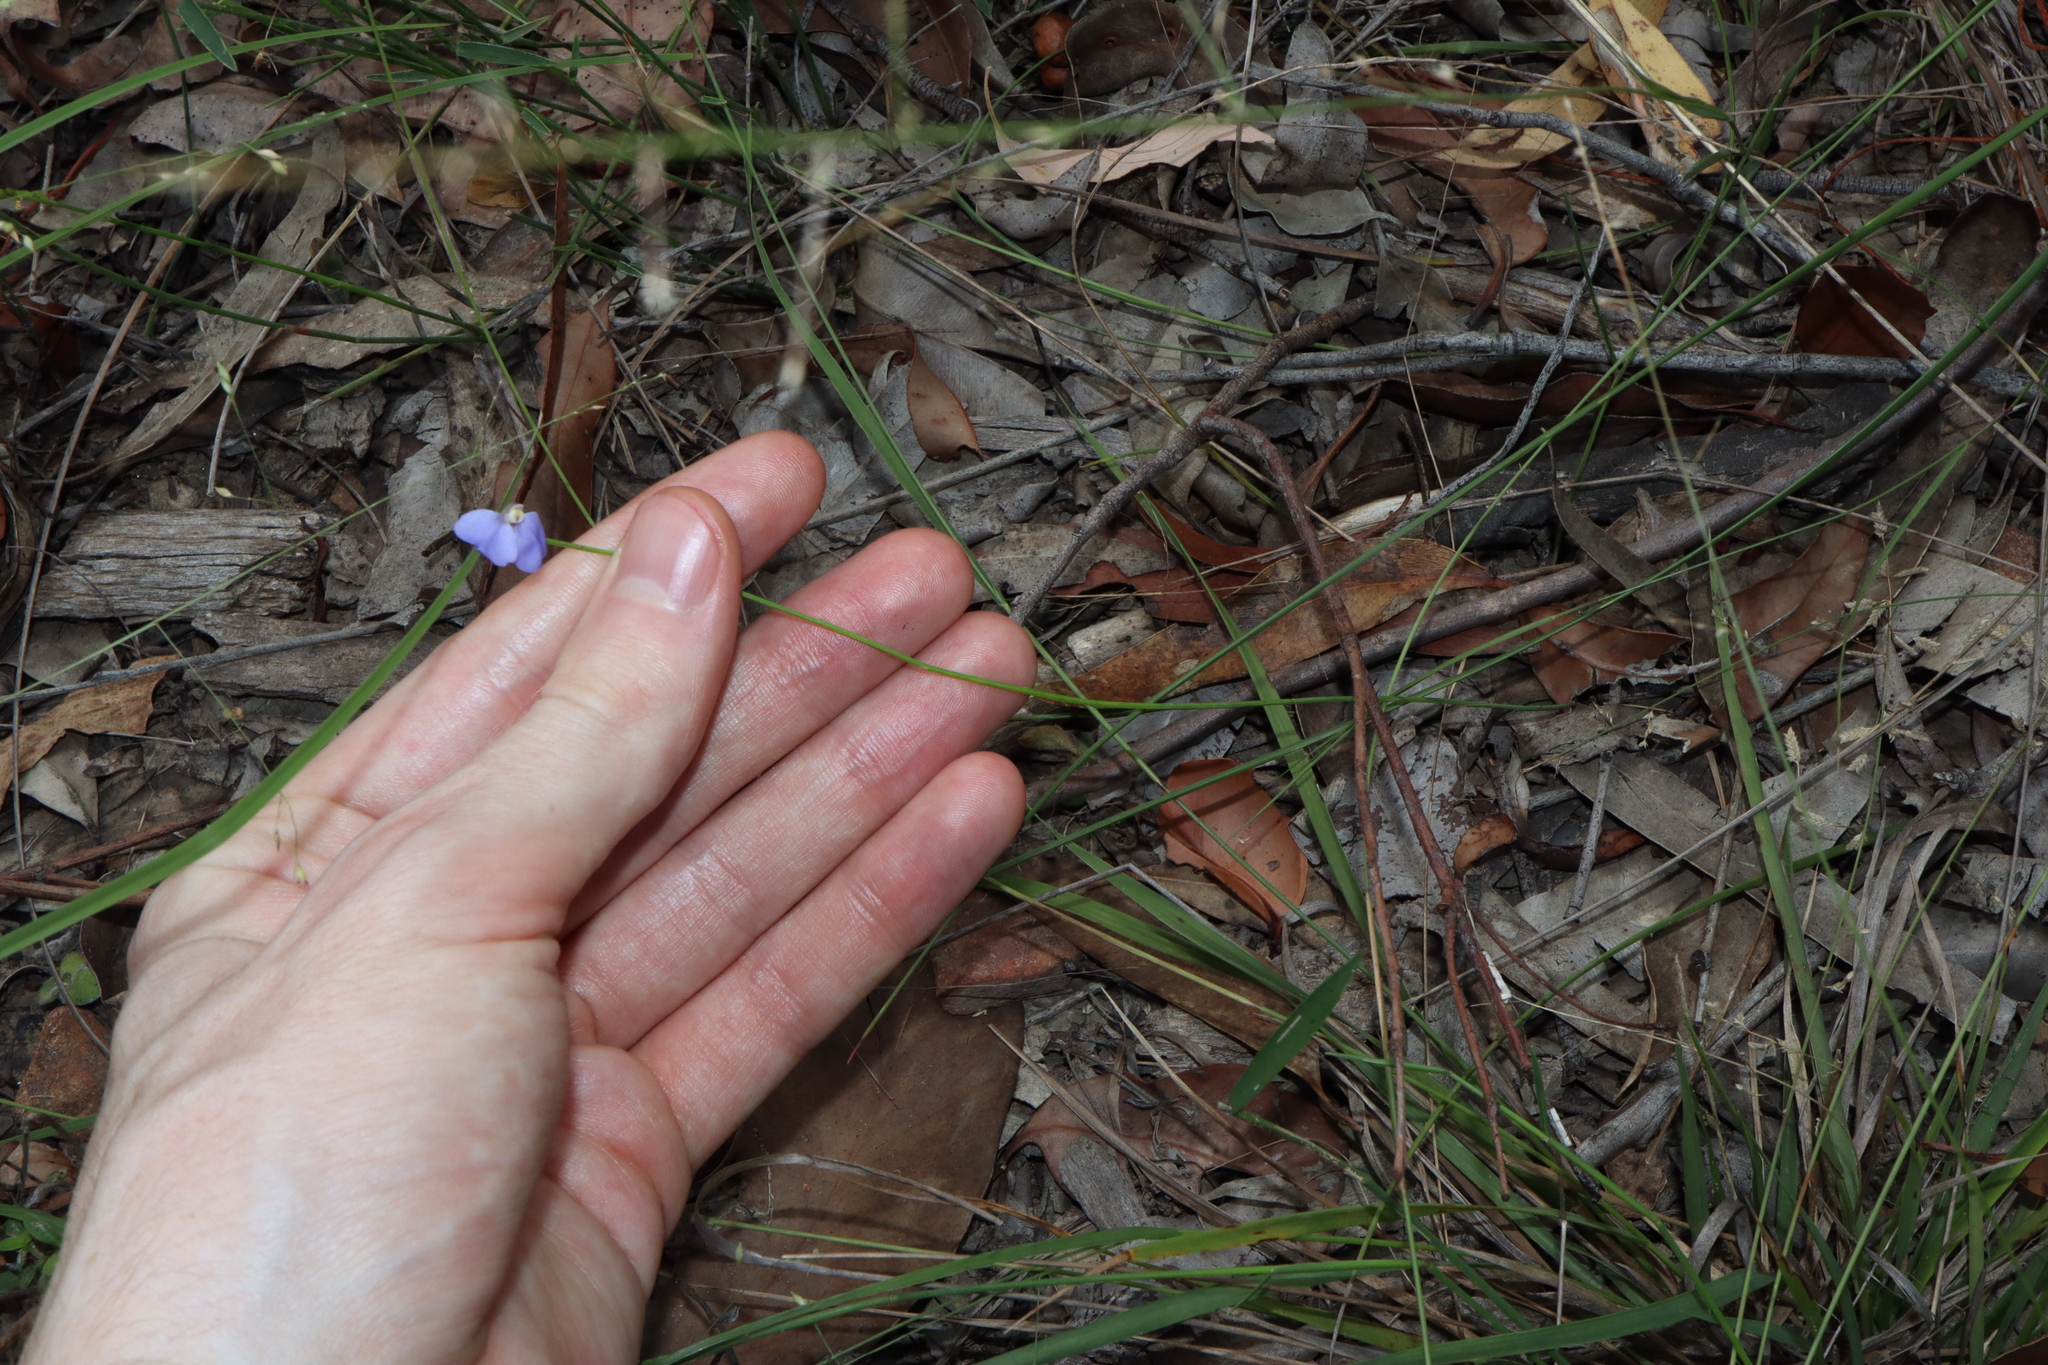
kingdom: Plantae
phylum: Tracheophyta
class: Magnoliopsida
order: Fabales
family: Polygalaceae
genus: Comesperma
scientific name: Comesperma sphaerocarpum
